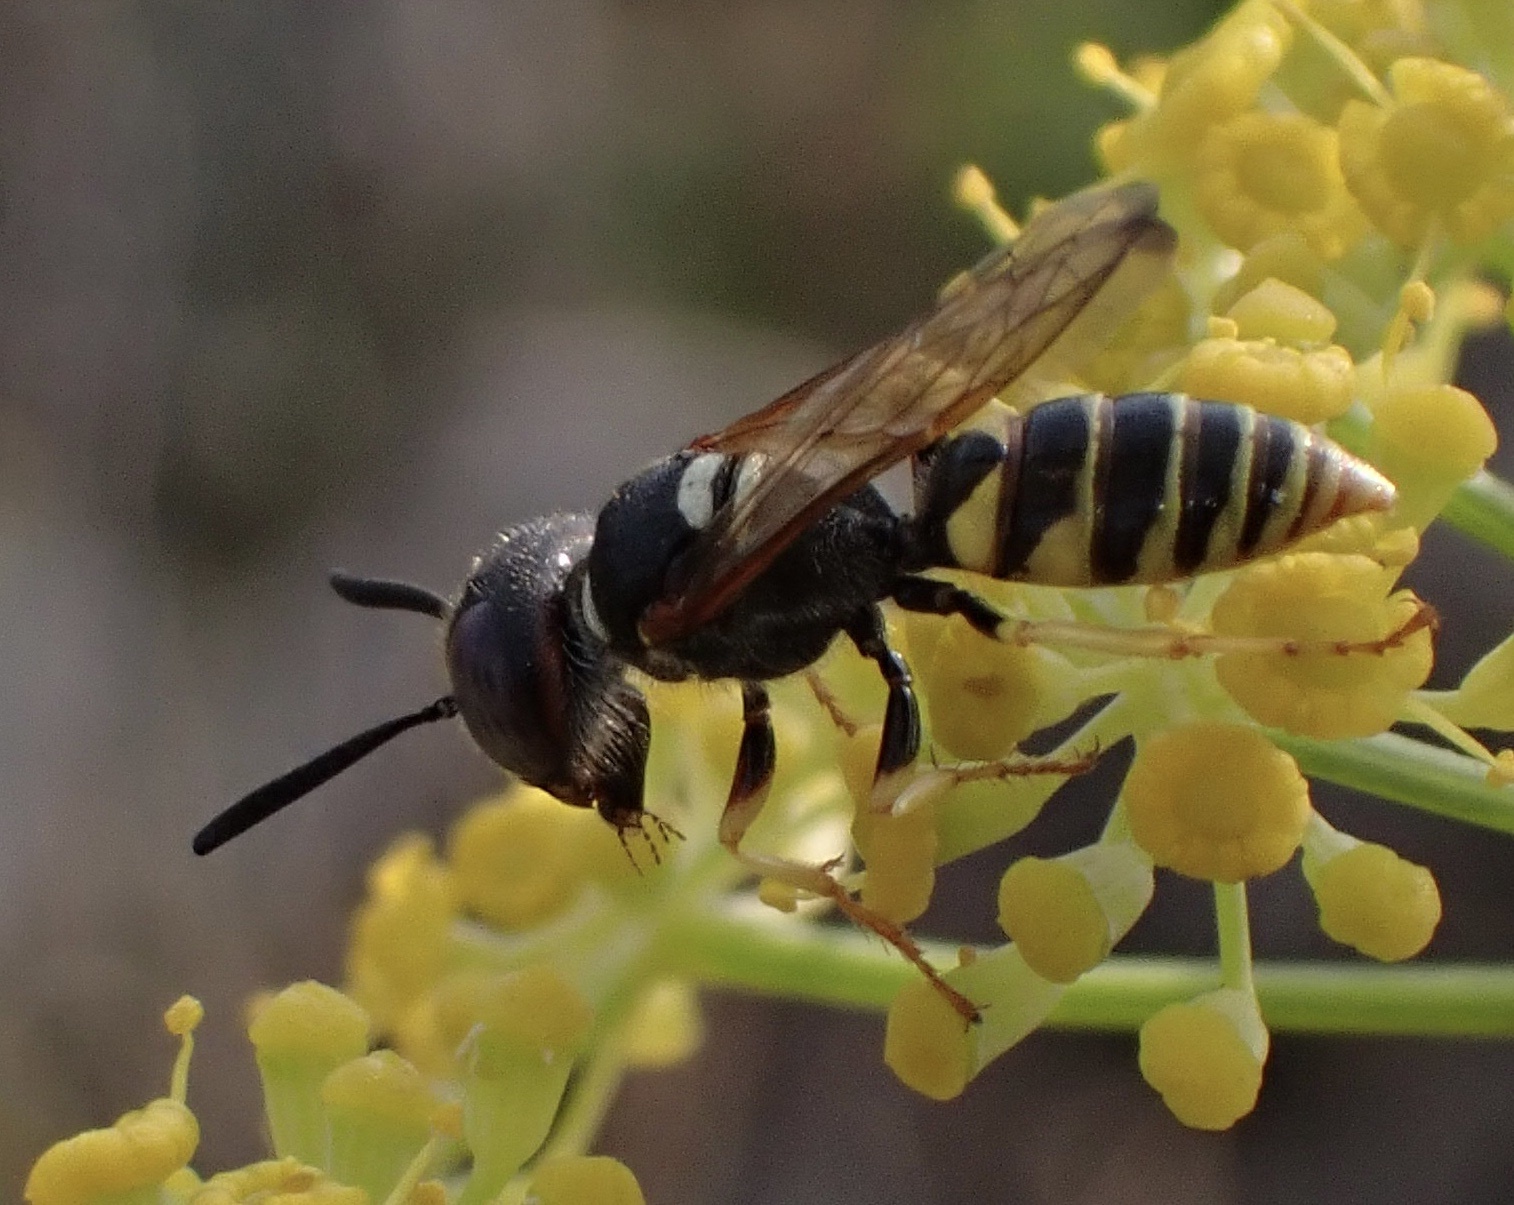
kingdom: Animalia
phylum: Arthropoda
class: Insecta
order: Hymenoptera
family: Crabronidae
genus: Philanthus
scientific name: Philanthus triangulum
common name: Bee wolf
